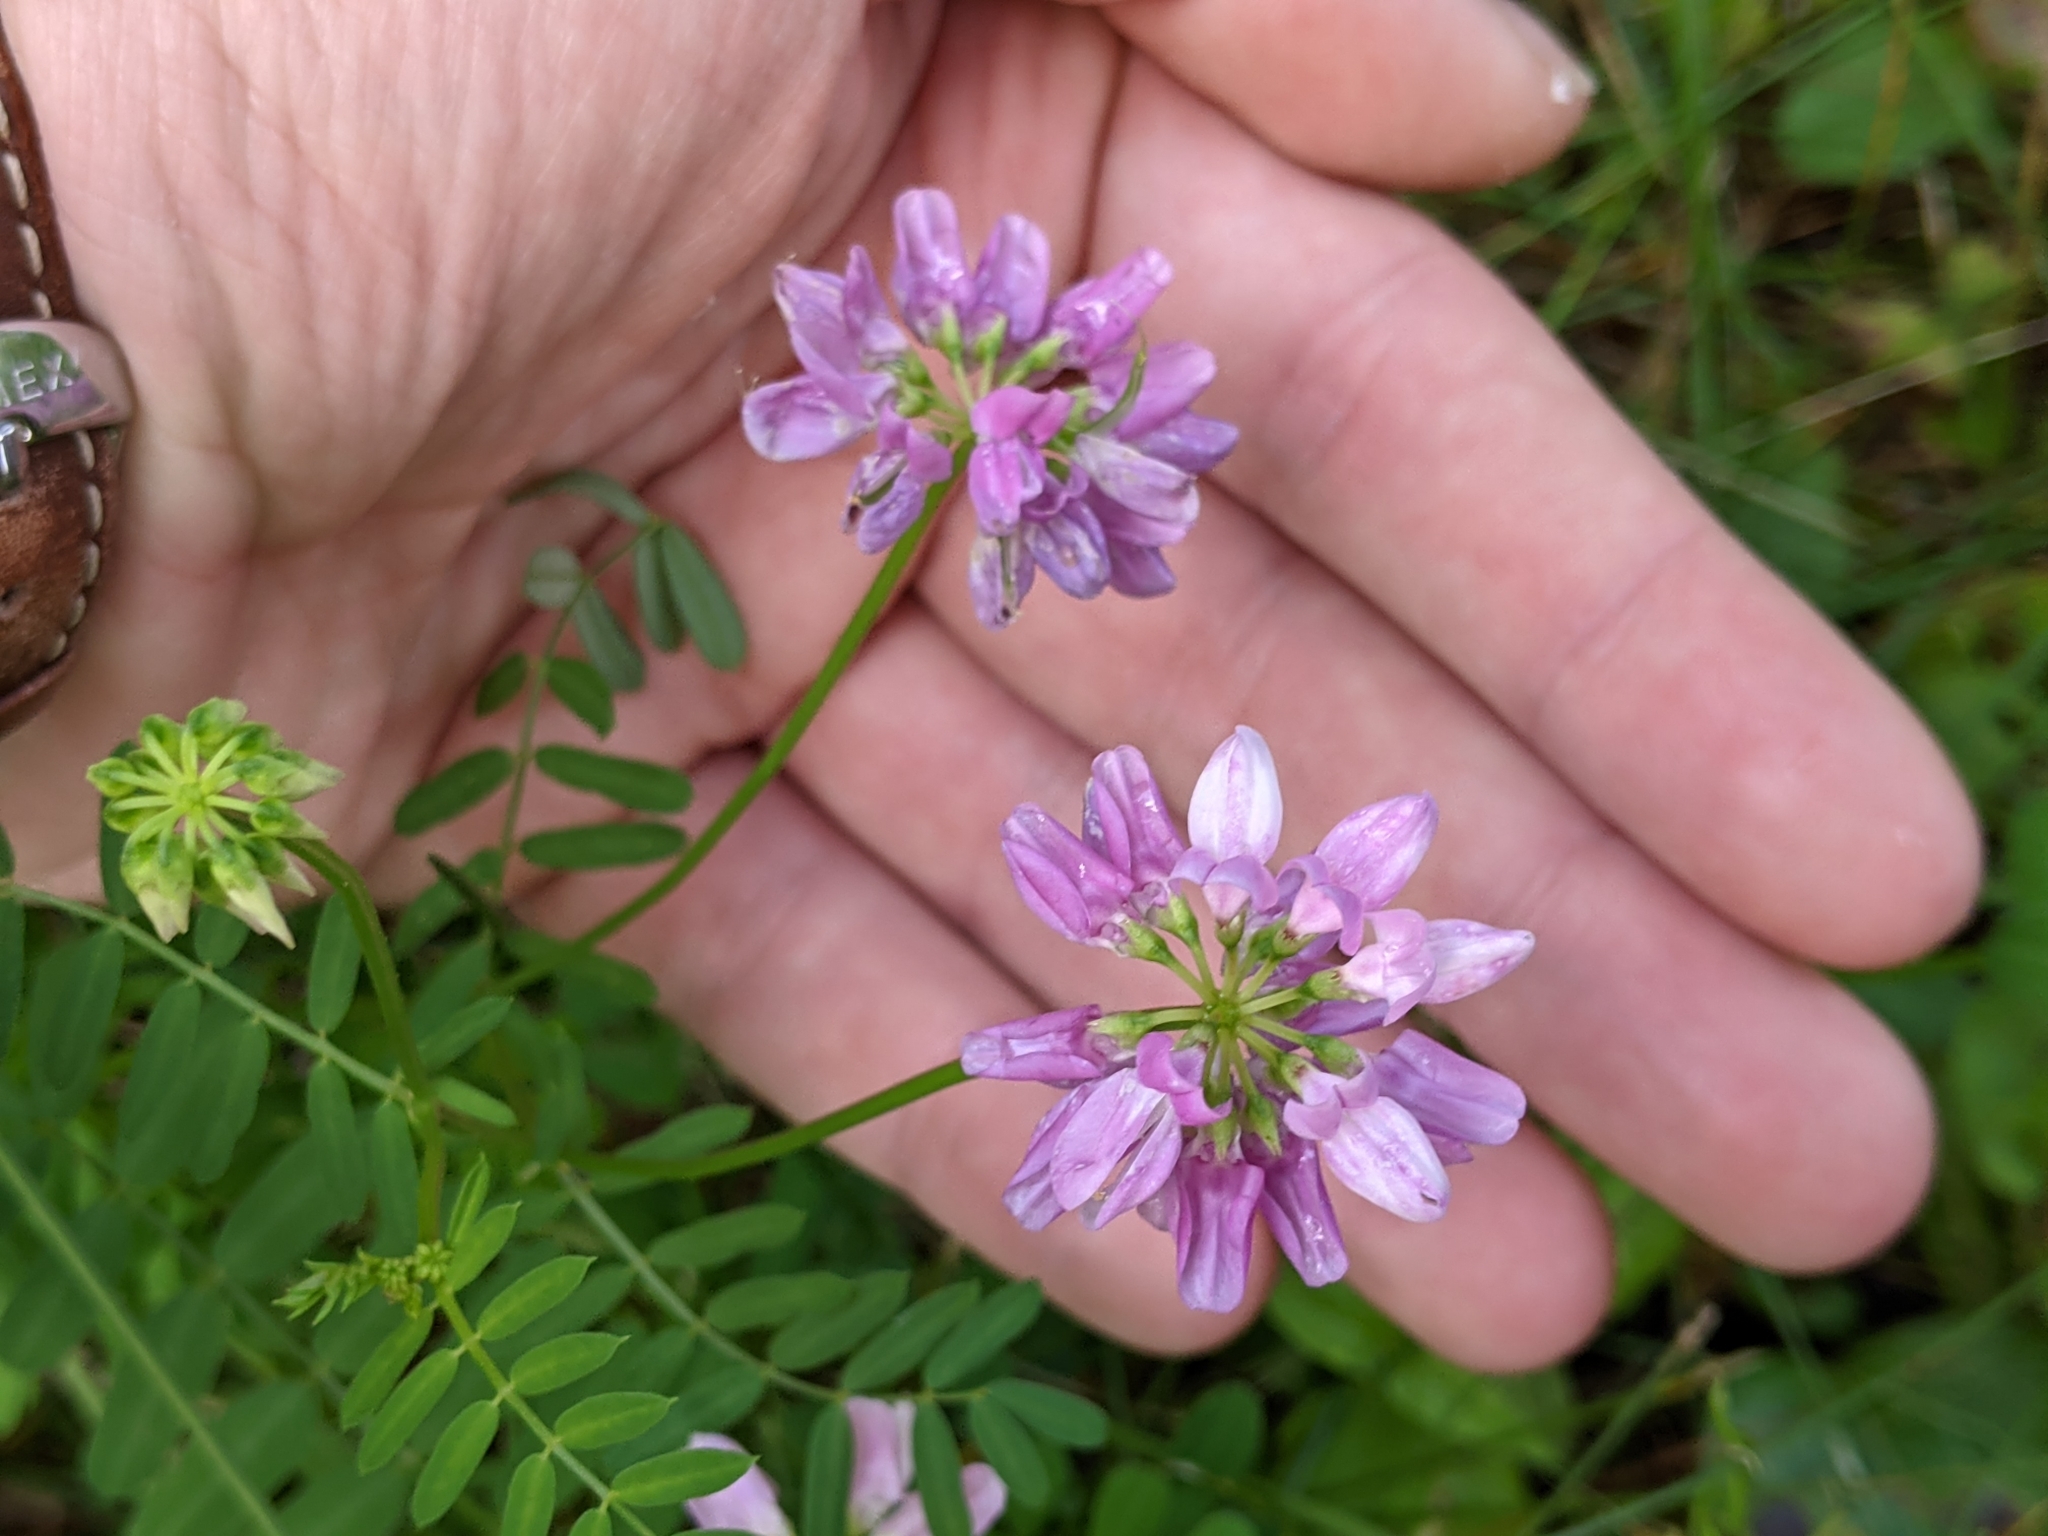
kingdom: Plantae
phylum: Tracheophyta
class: Magnoliopsida
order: Fabales
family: Fabaceae
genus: Coronilla
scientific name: Coronilla varia
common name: Crownvetch
